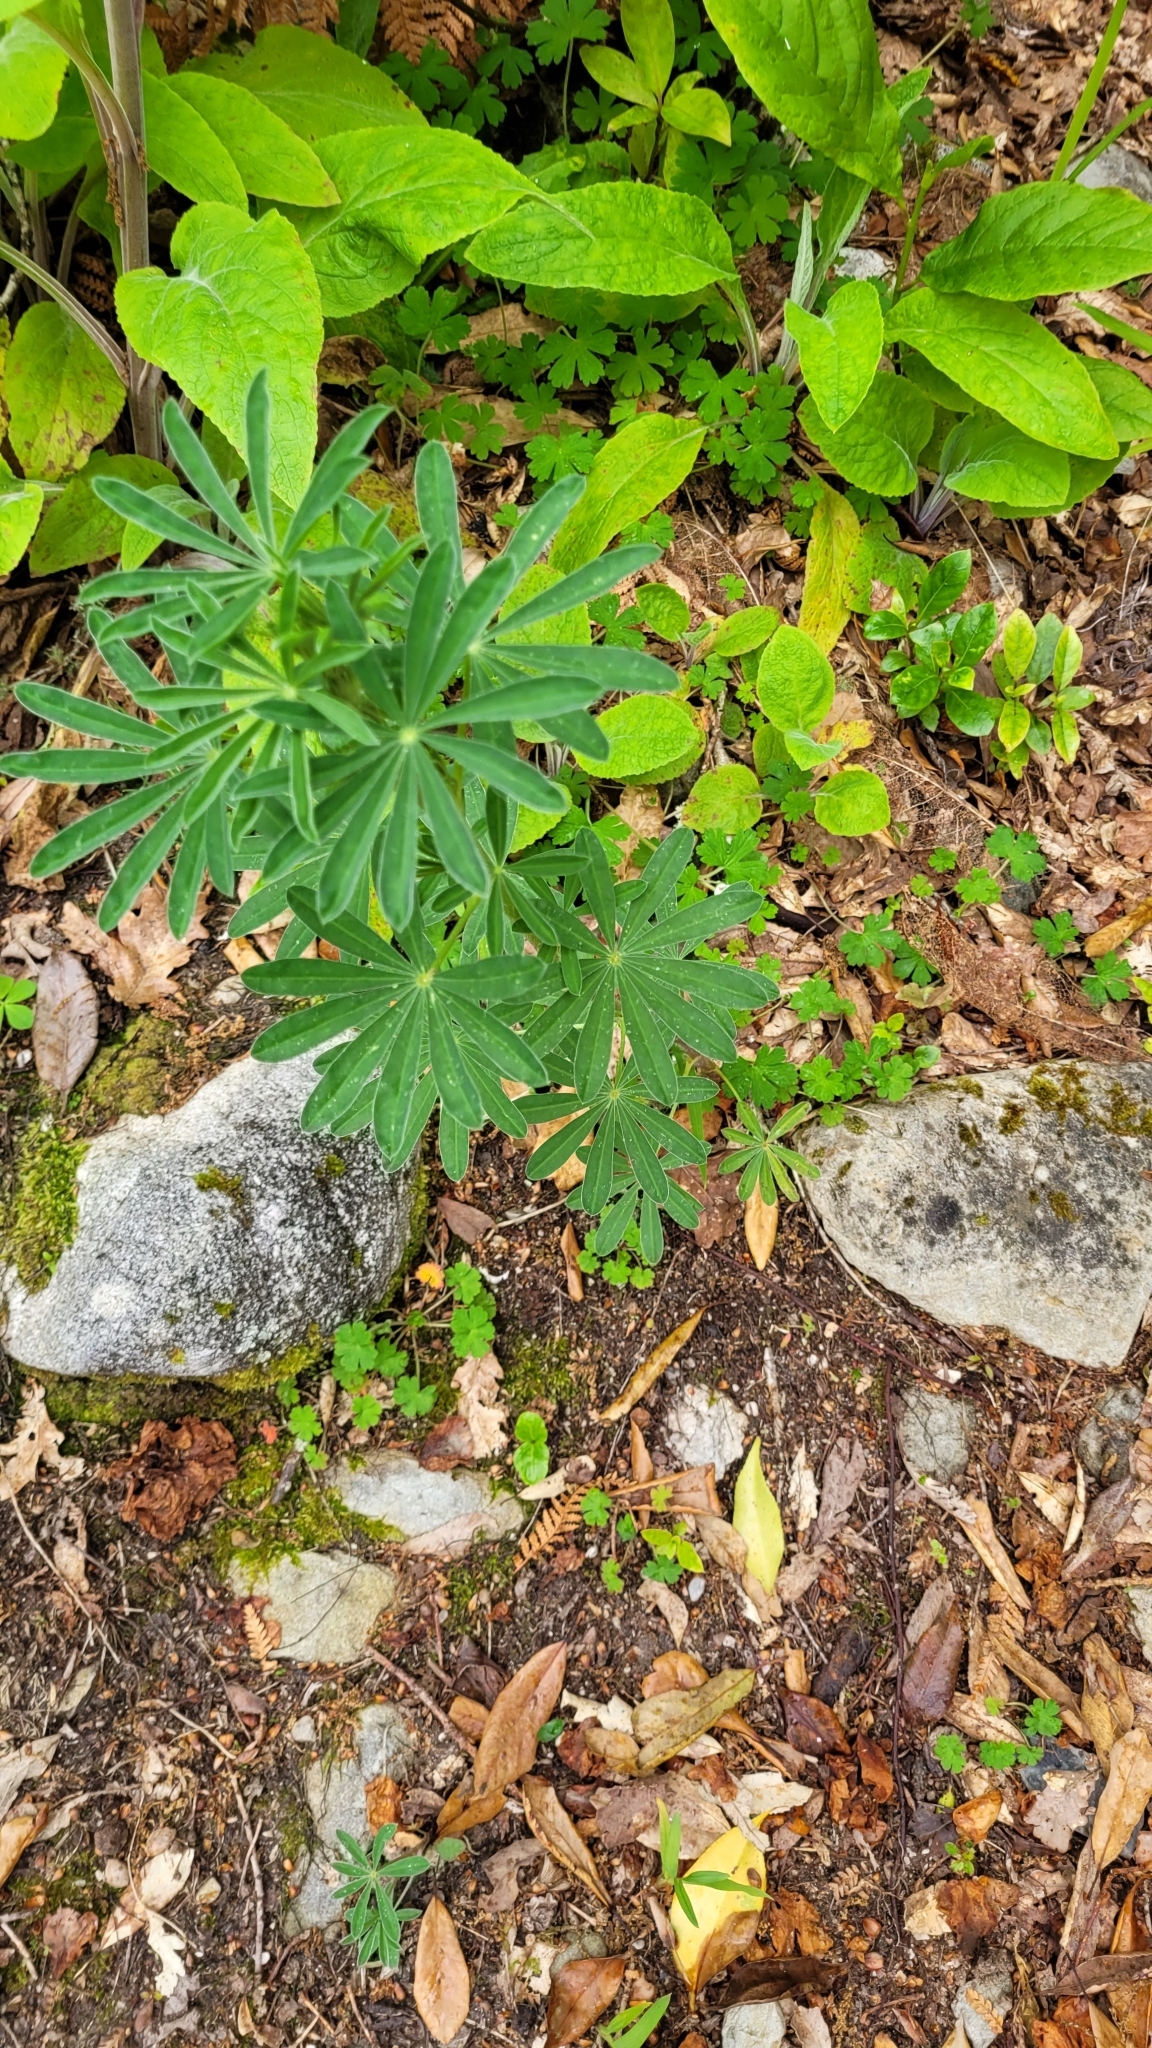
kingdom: Plantae
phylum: Tracheophyta
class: Magnoliopsida
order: Fabales
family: Fabaceae
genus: Lupinus
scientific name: Lupinus arboreus
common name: Yellow bush lupine
